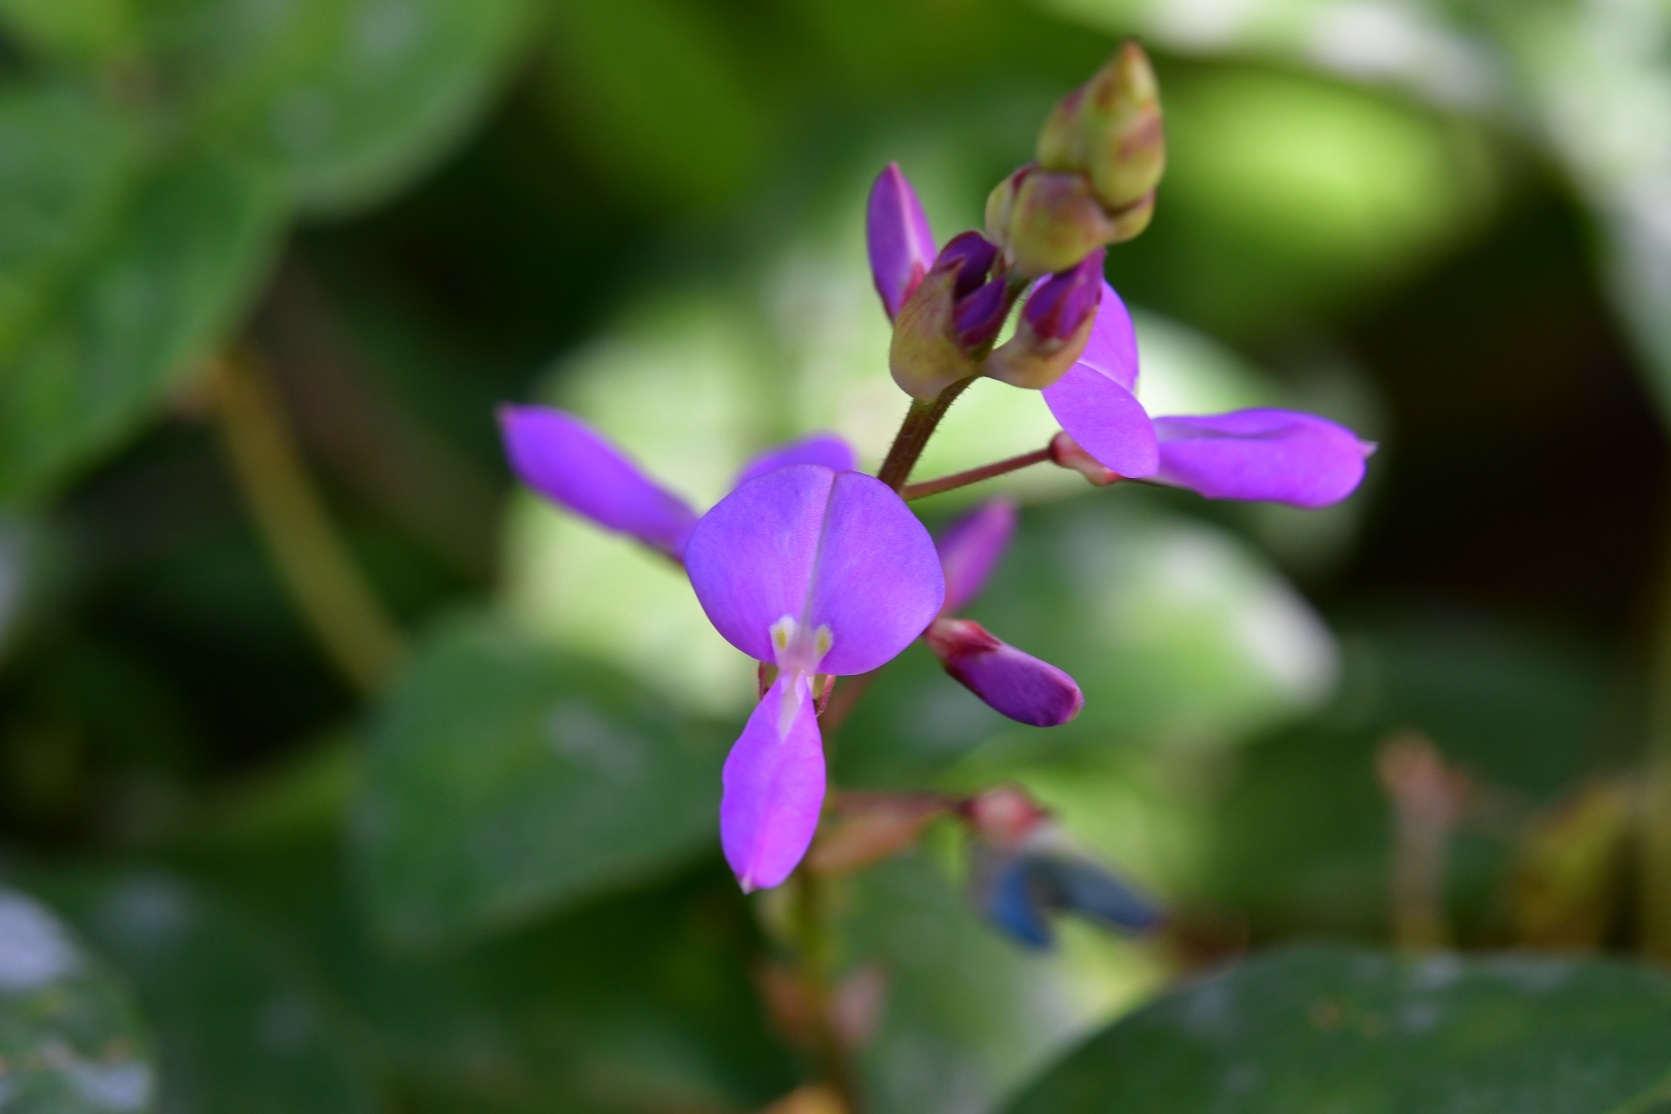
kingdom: Plantae
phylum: Tracheophyta
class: Magnoliopsida
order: Fabales
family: Fabaceae
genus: Desmodium
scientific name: Desmodium pringlei
